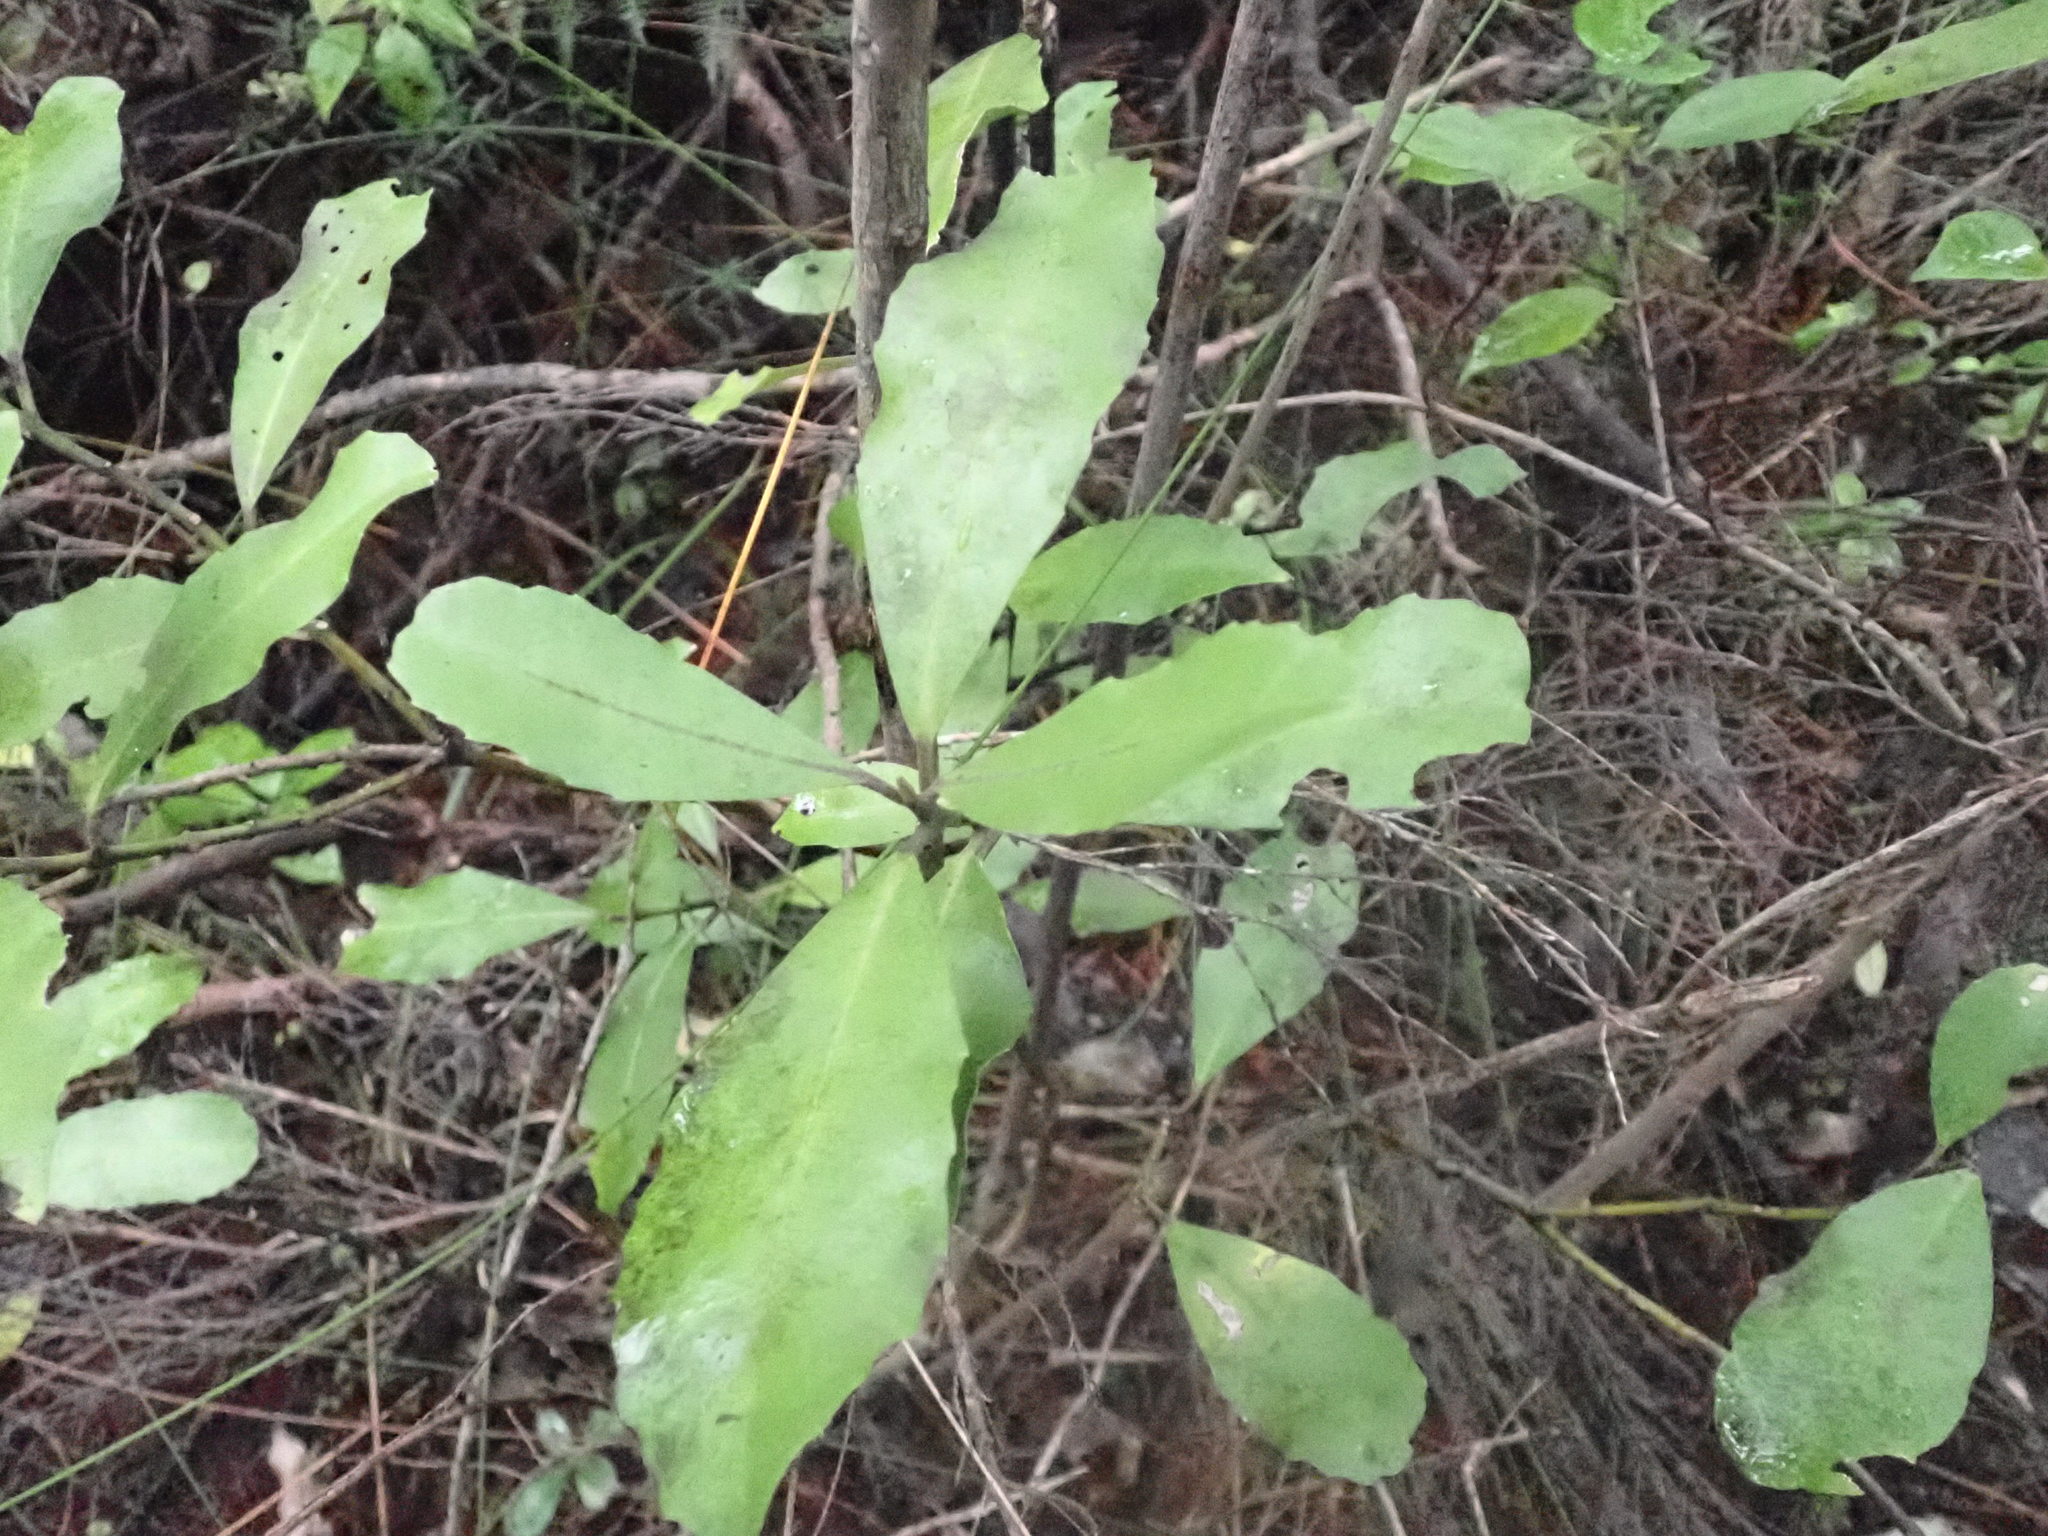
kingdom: Plantae
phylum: Tracheophyta
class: Magnoliopsida
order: Laurales
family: Monimiaceae
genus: Hedycarya
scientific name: Hedycarya arborea
